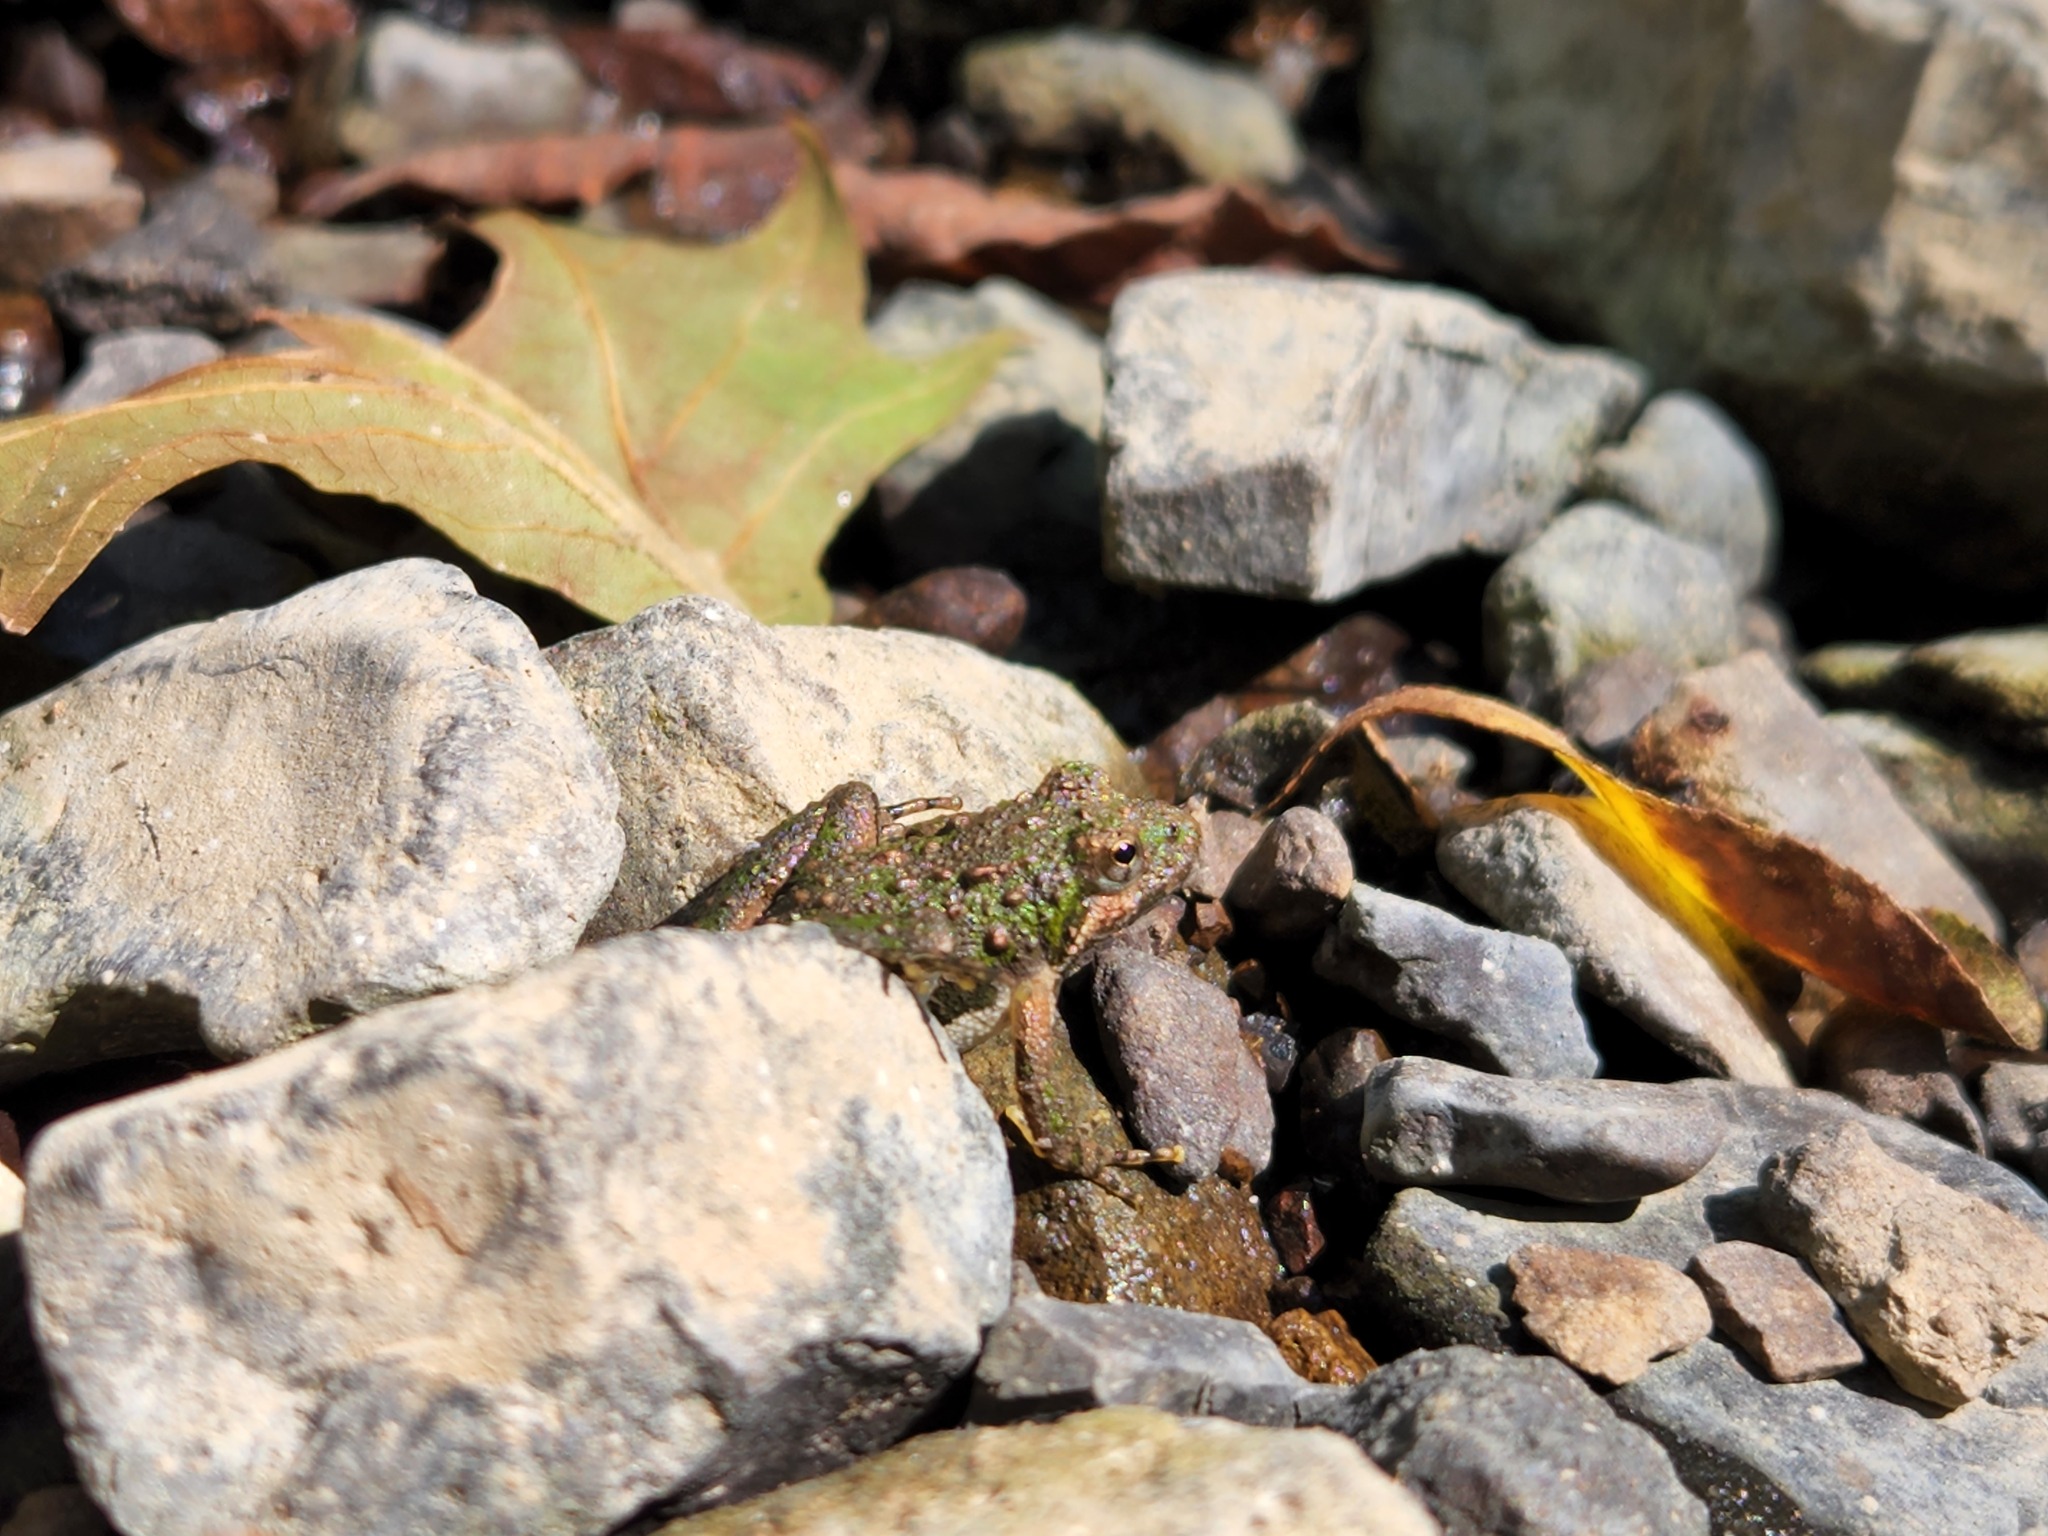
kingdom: Animalia
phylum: Chordata
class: Amphibia
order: Anura
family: Hylidae
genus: Acris
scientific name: Acris crepitans
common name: Northern cricket frog
